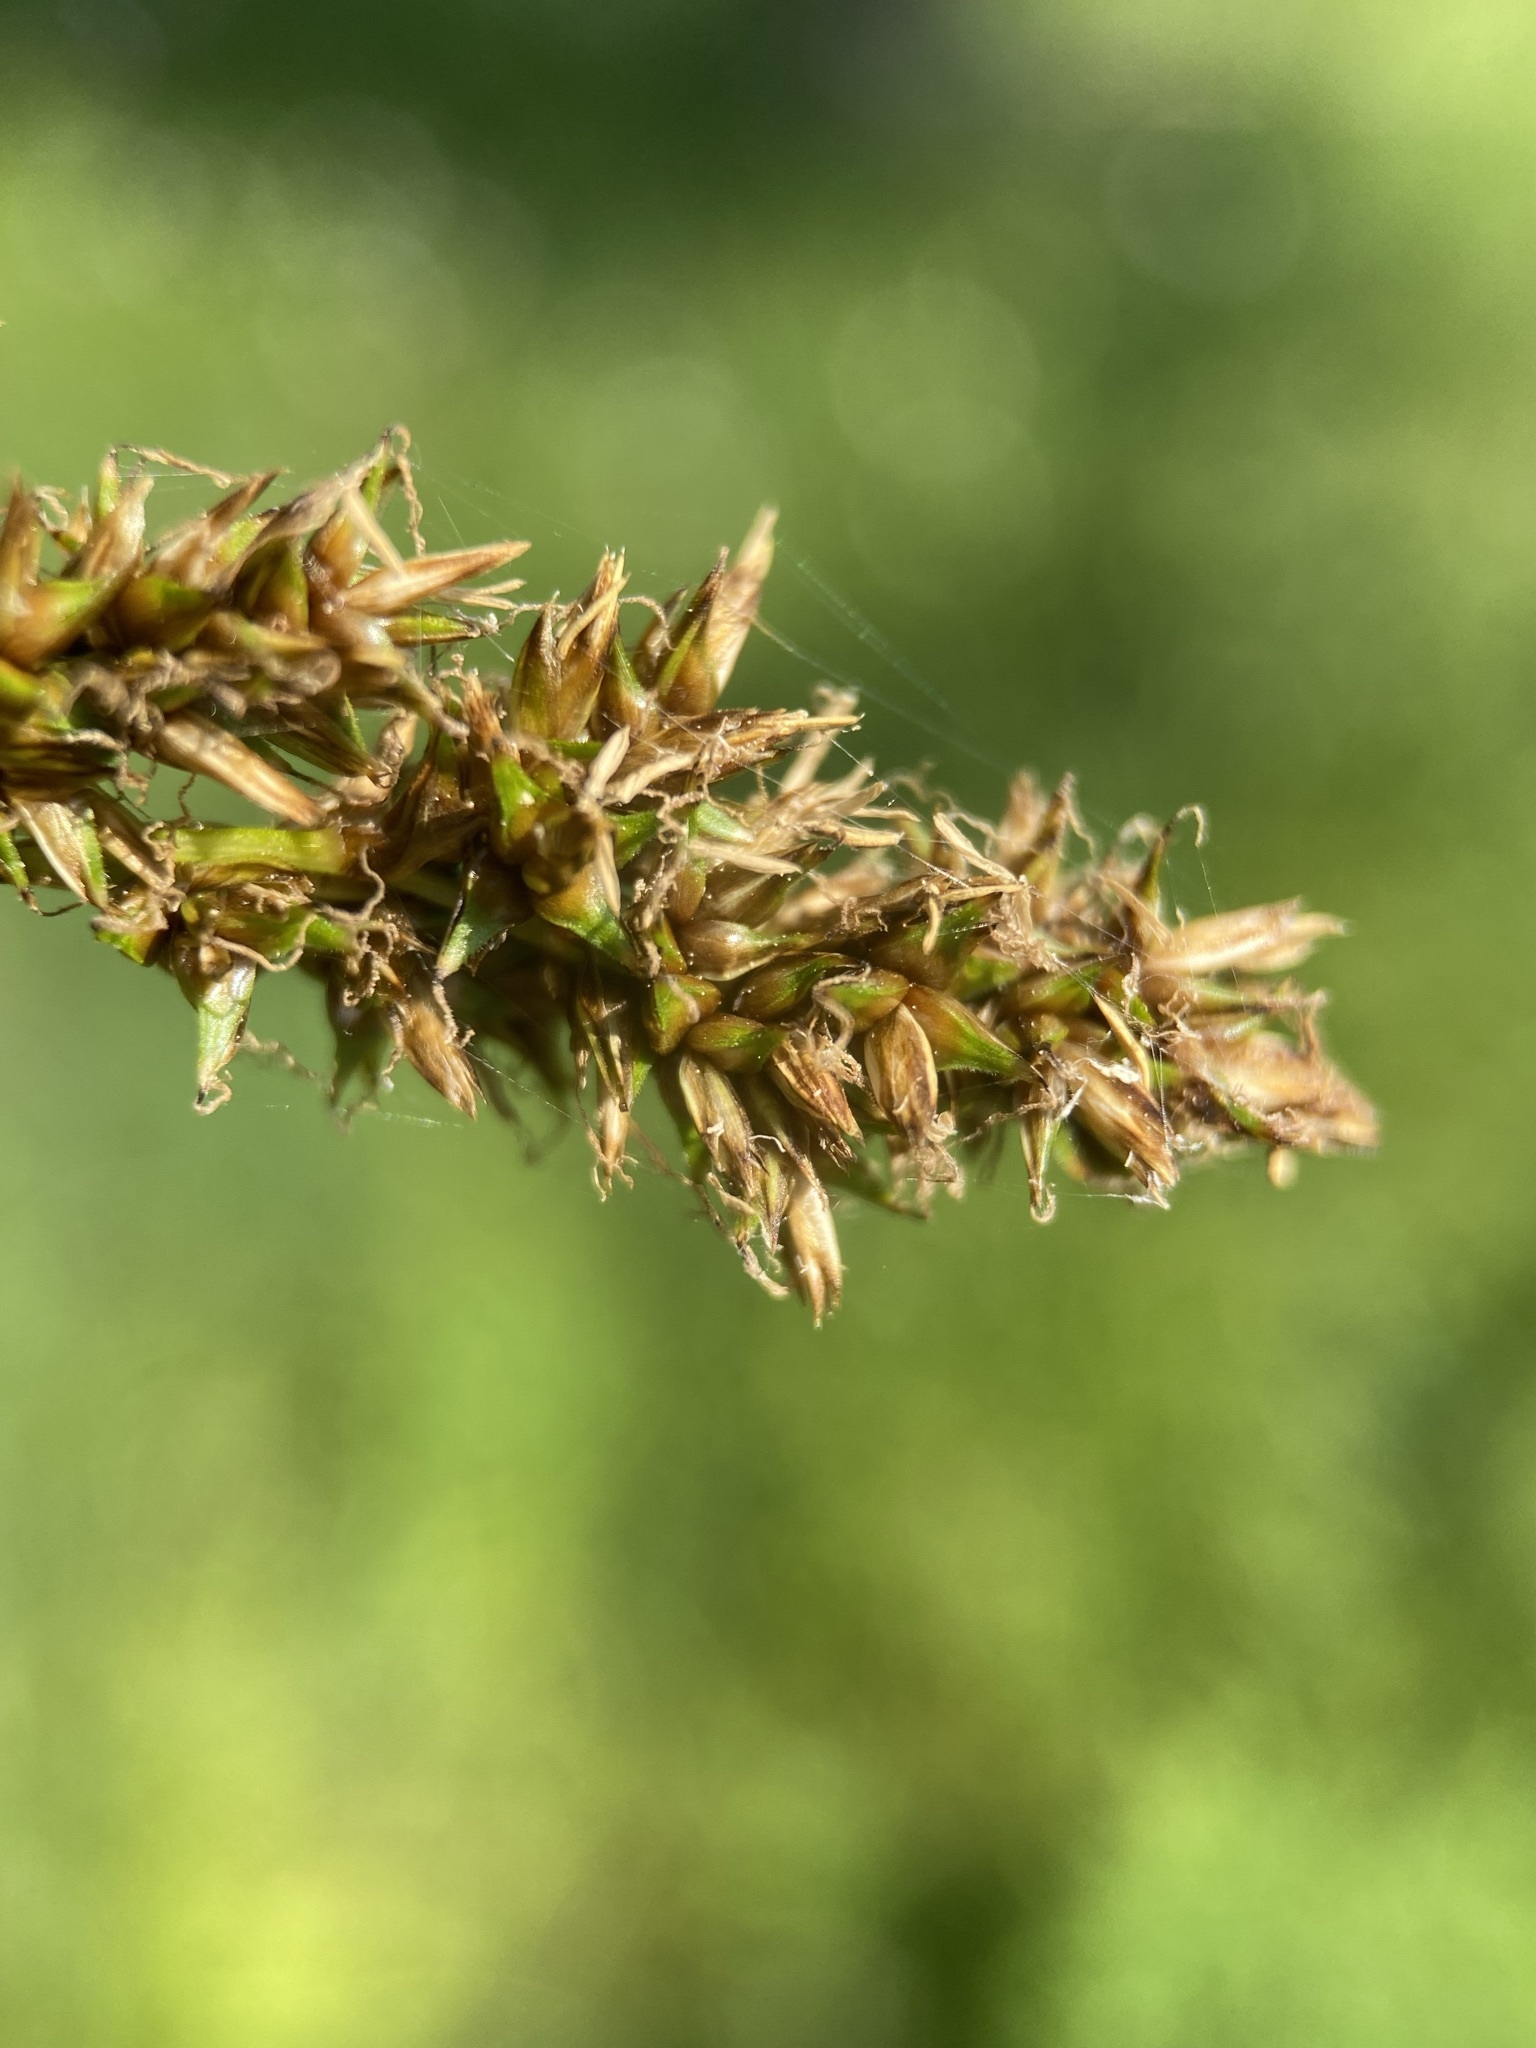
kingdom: Plantae
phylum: Tracheophyta
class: Liliopsida
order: Poales
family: Cyperaceae
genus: Carex
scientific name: Carex cusickii
